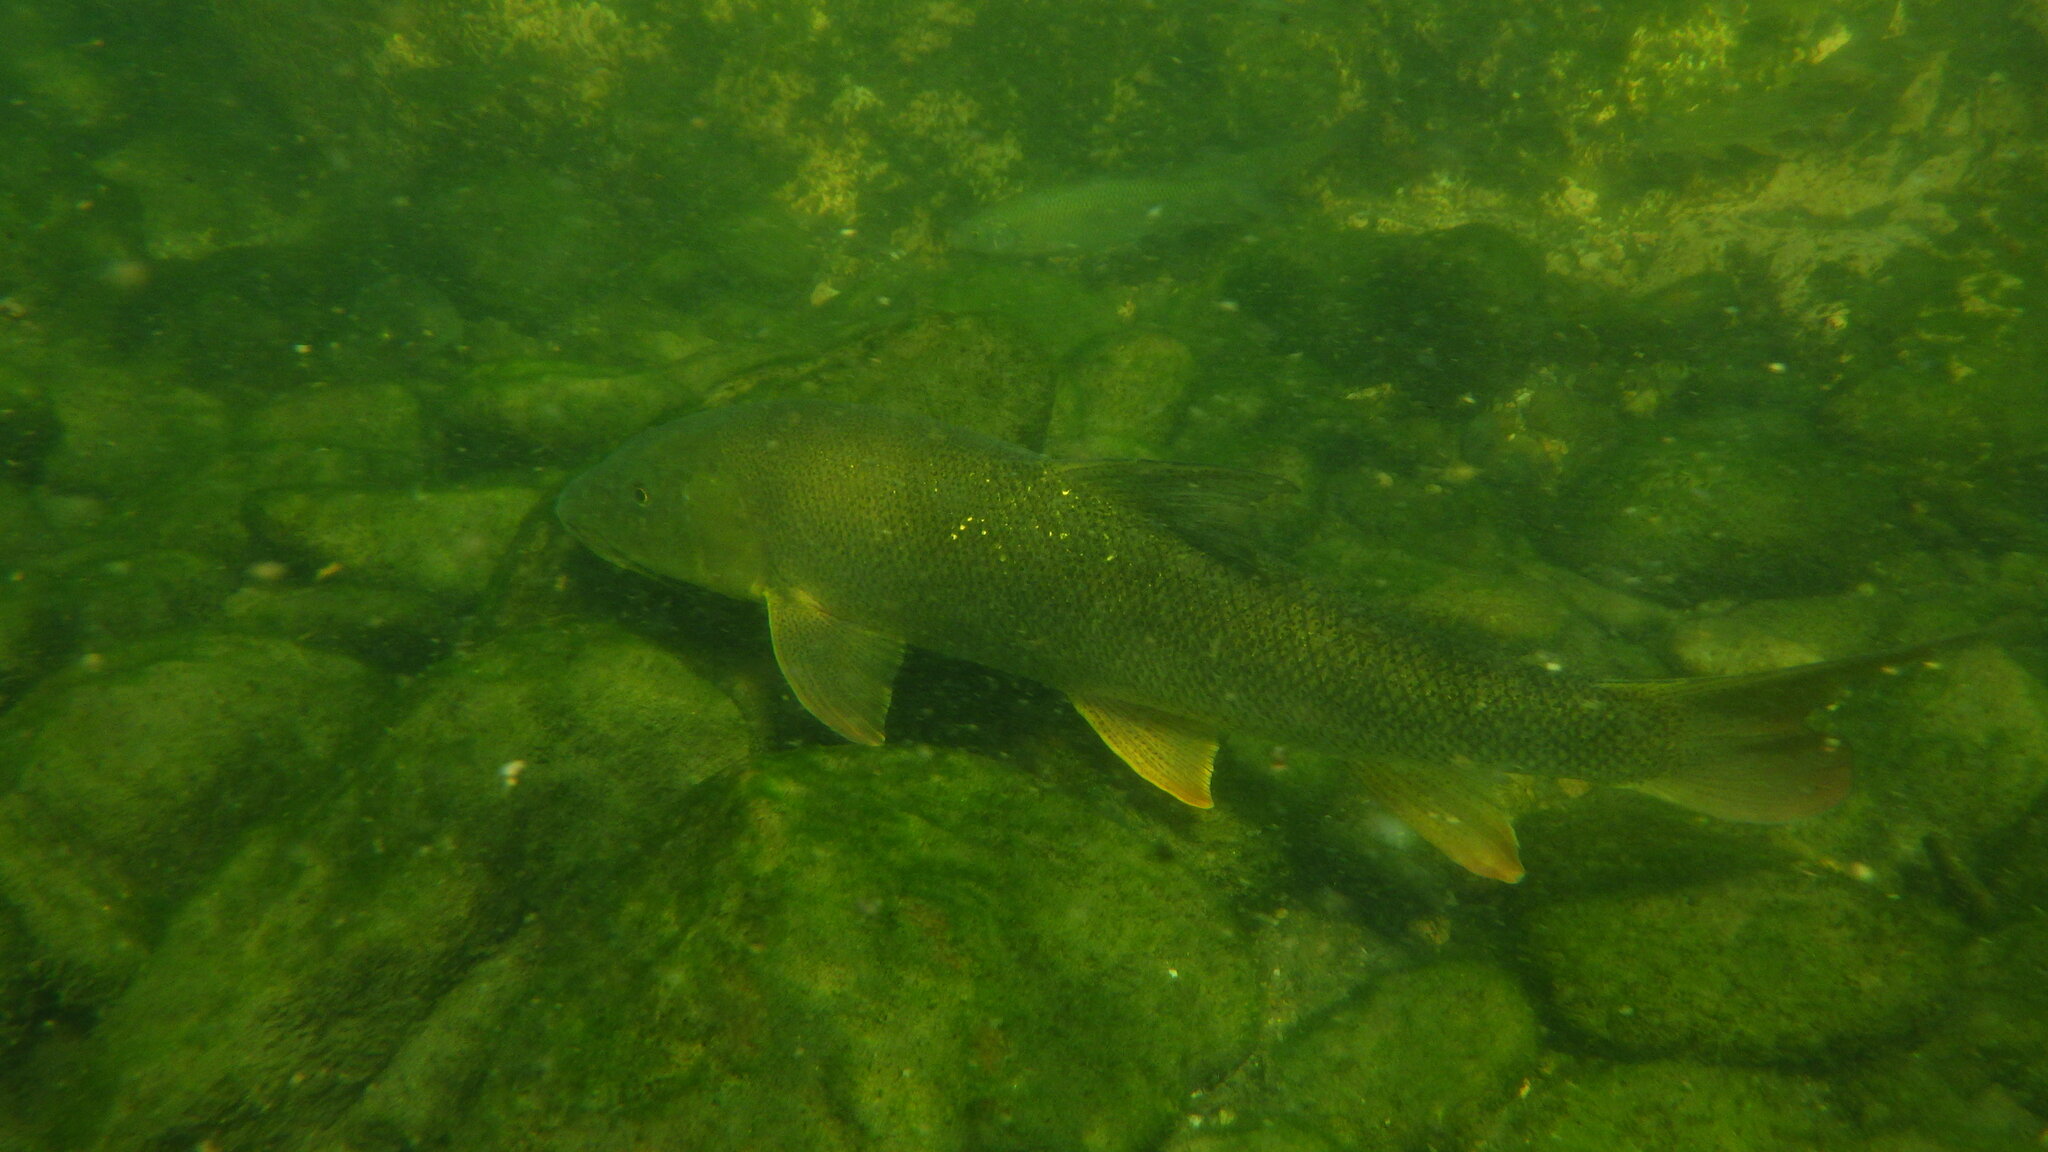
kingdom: Animalia
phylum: Chordata
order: Cypriniformes
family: Cyprinidae
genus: Barbus
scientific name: Barbus barbus
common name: Barbel
